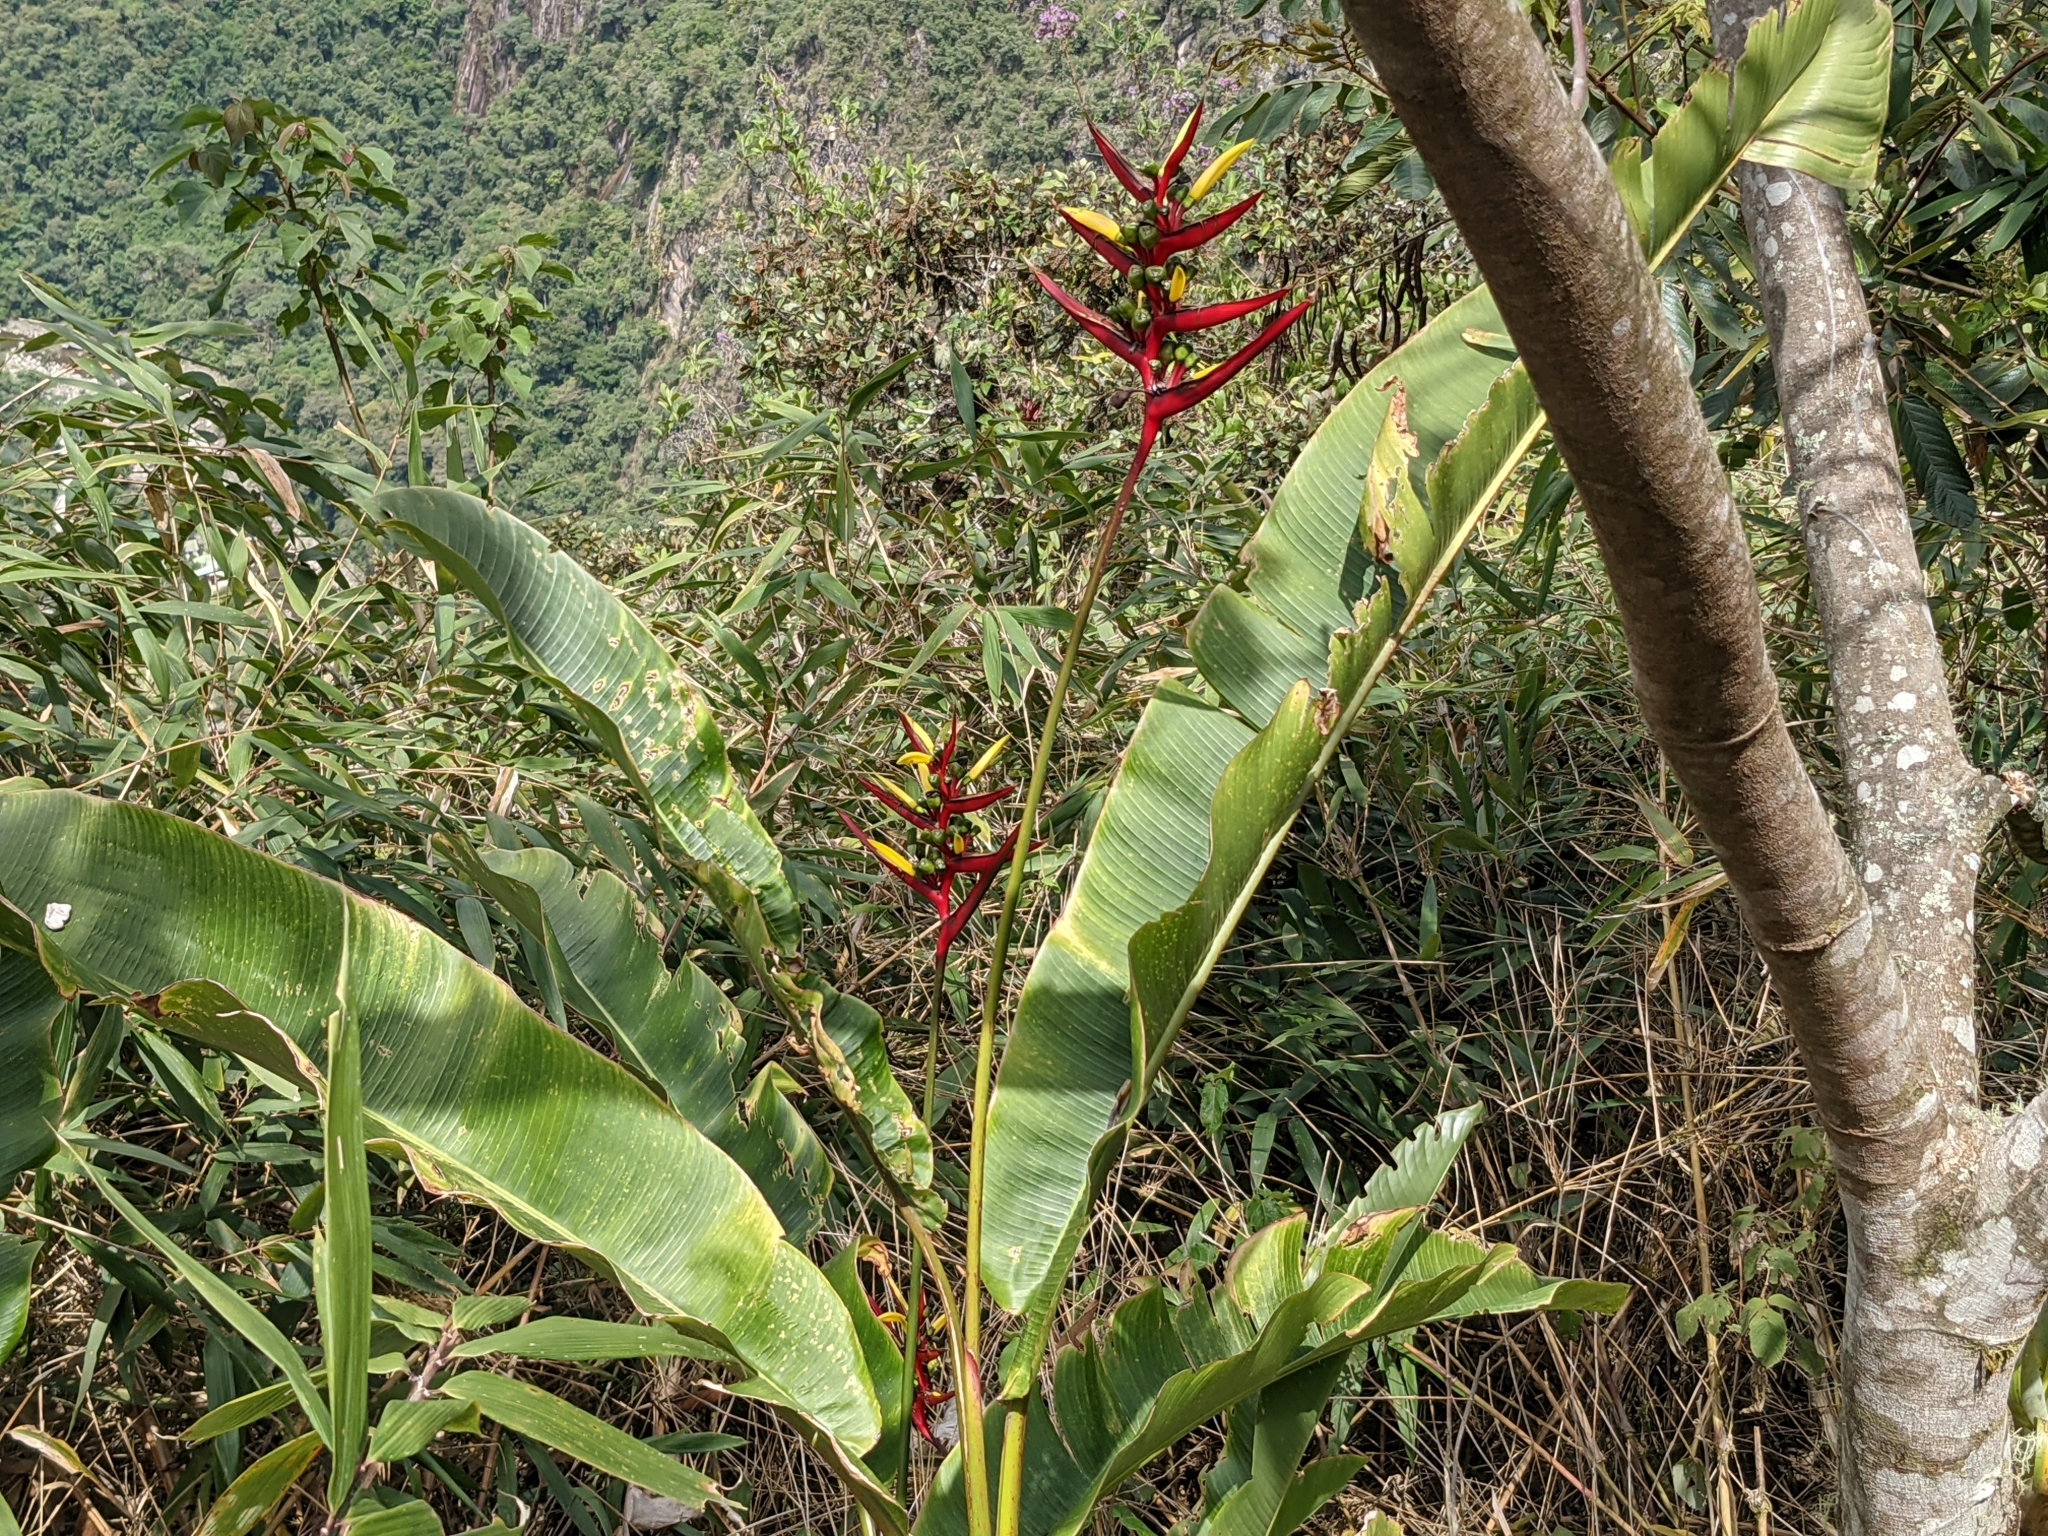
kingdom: Plantae
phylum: Tracheophyta
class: Liliopsida
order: Zingiberales
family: Heliconiaceae
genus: Heliconia
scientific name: Heliconia subulata
